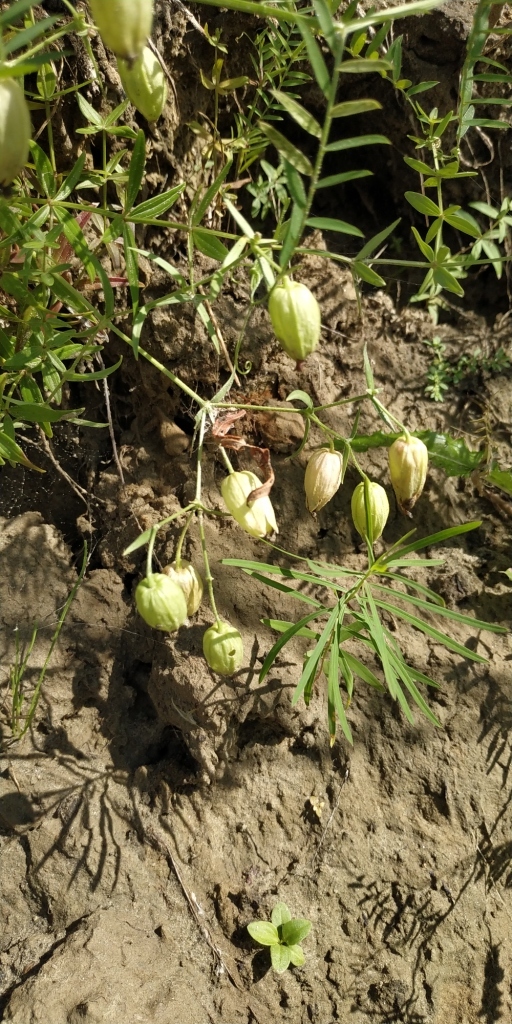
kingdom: Plantae
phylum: Tracheophyta
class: Magnoliopsida
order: Caryophyllales
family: Caryophyllaceae
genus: Silene
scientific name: Silene procumbens
